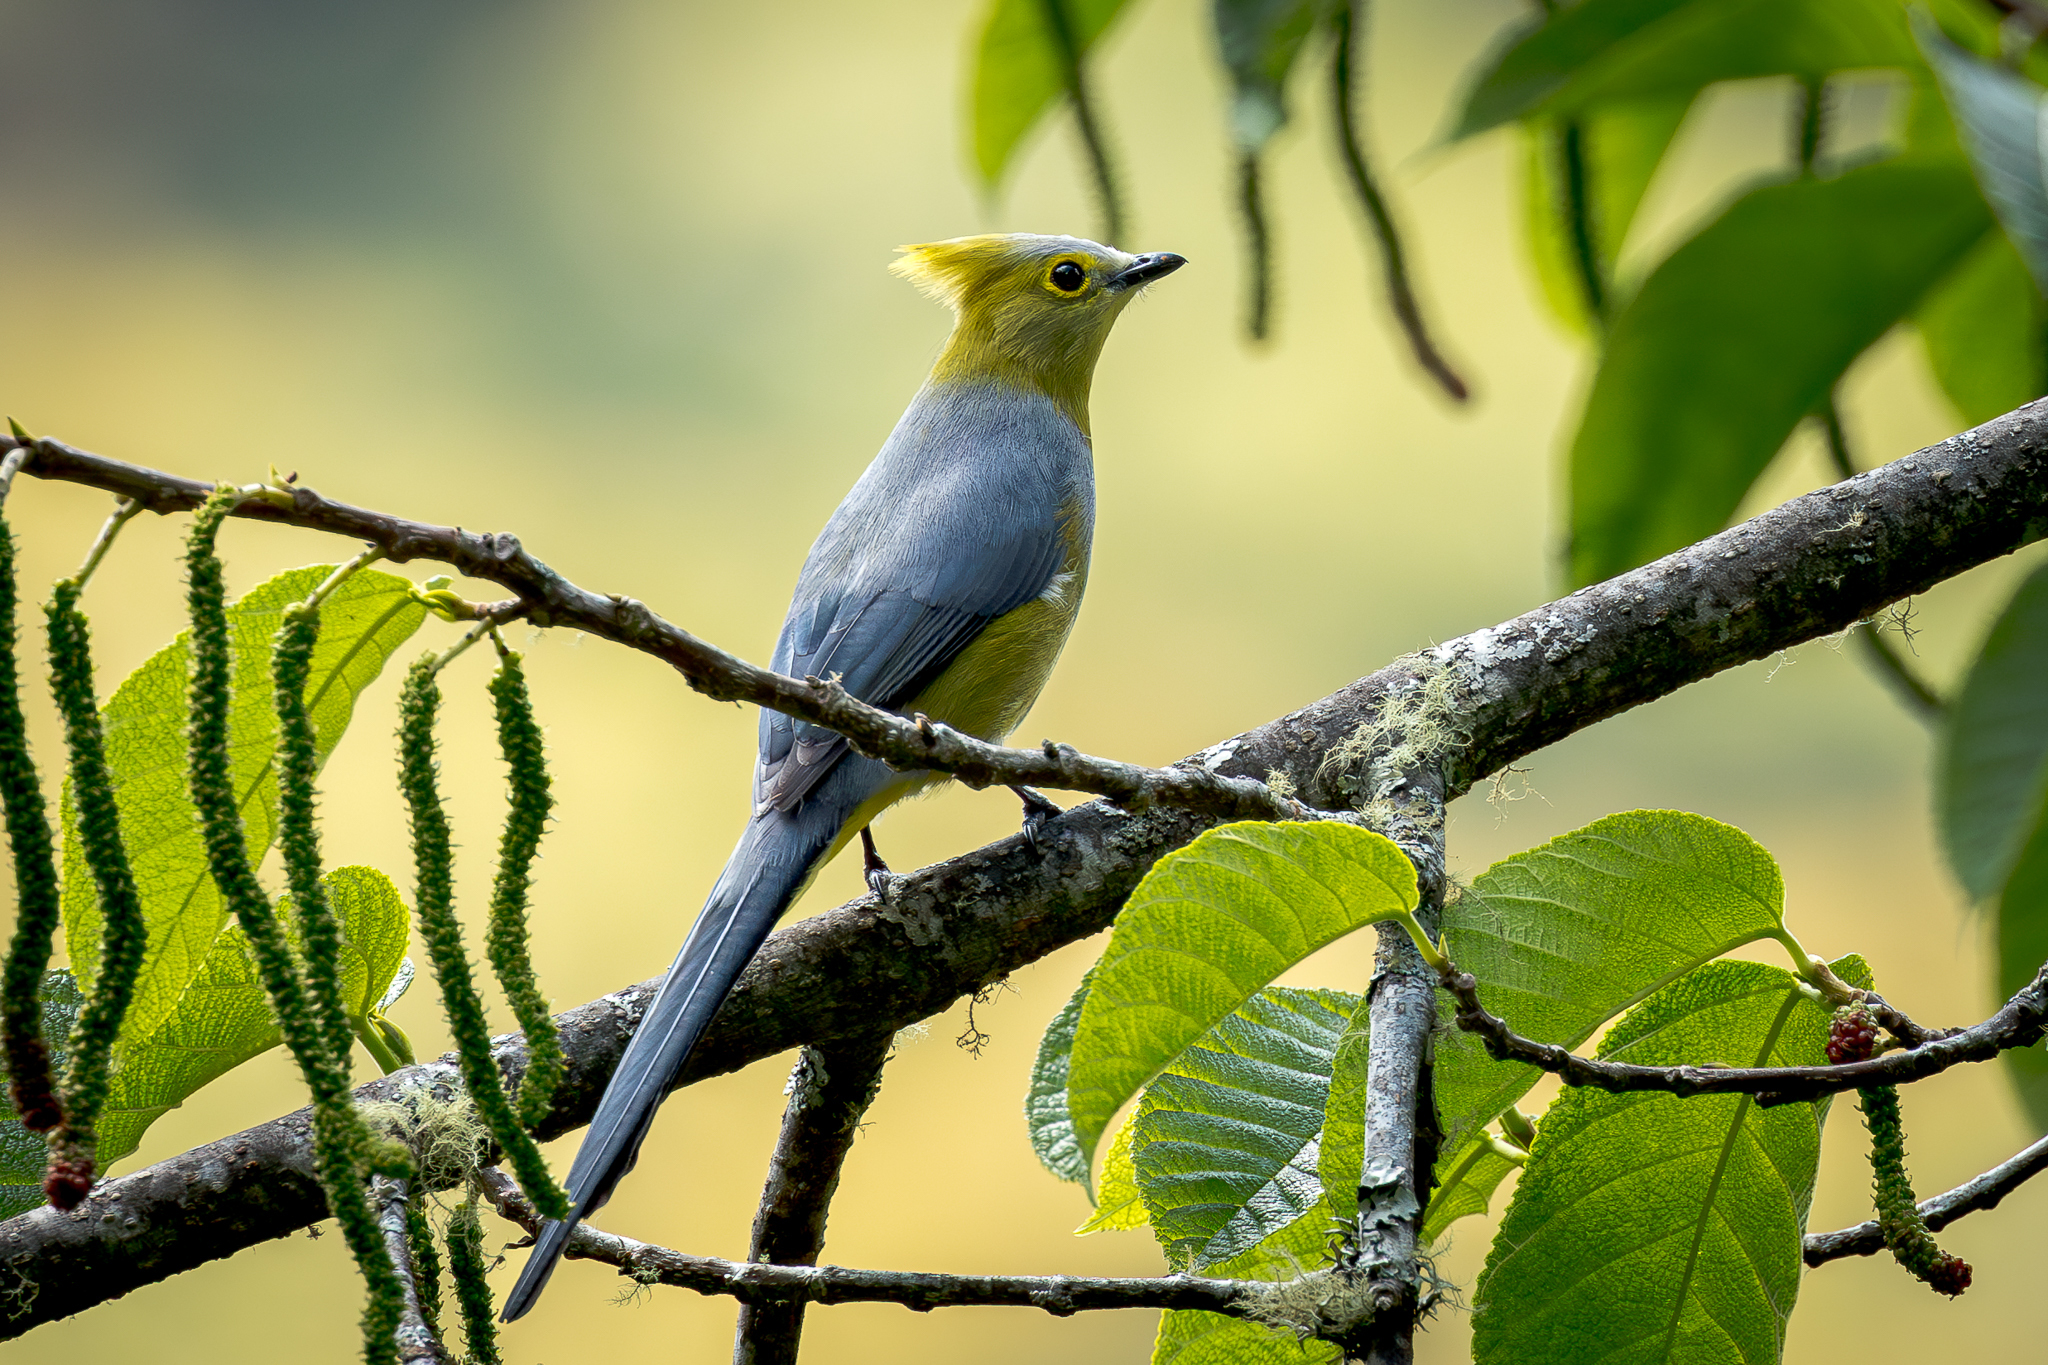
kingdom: Animalia
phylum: Chordata
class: Aves
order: Passeriformes
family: Ptilogonatidae
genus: Ptilogonys
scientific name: Ptilogonys caudatus
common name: Long-tailed silky-flycatcher
